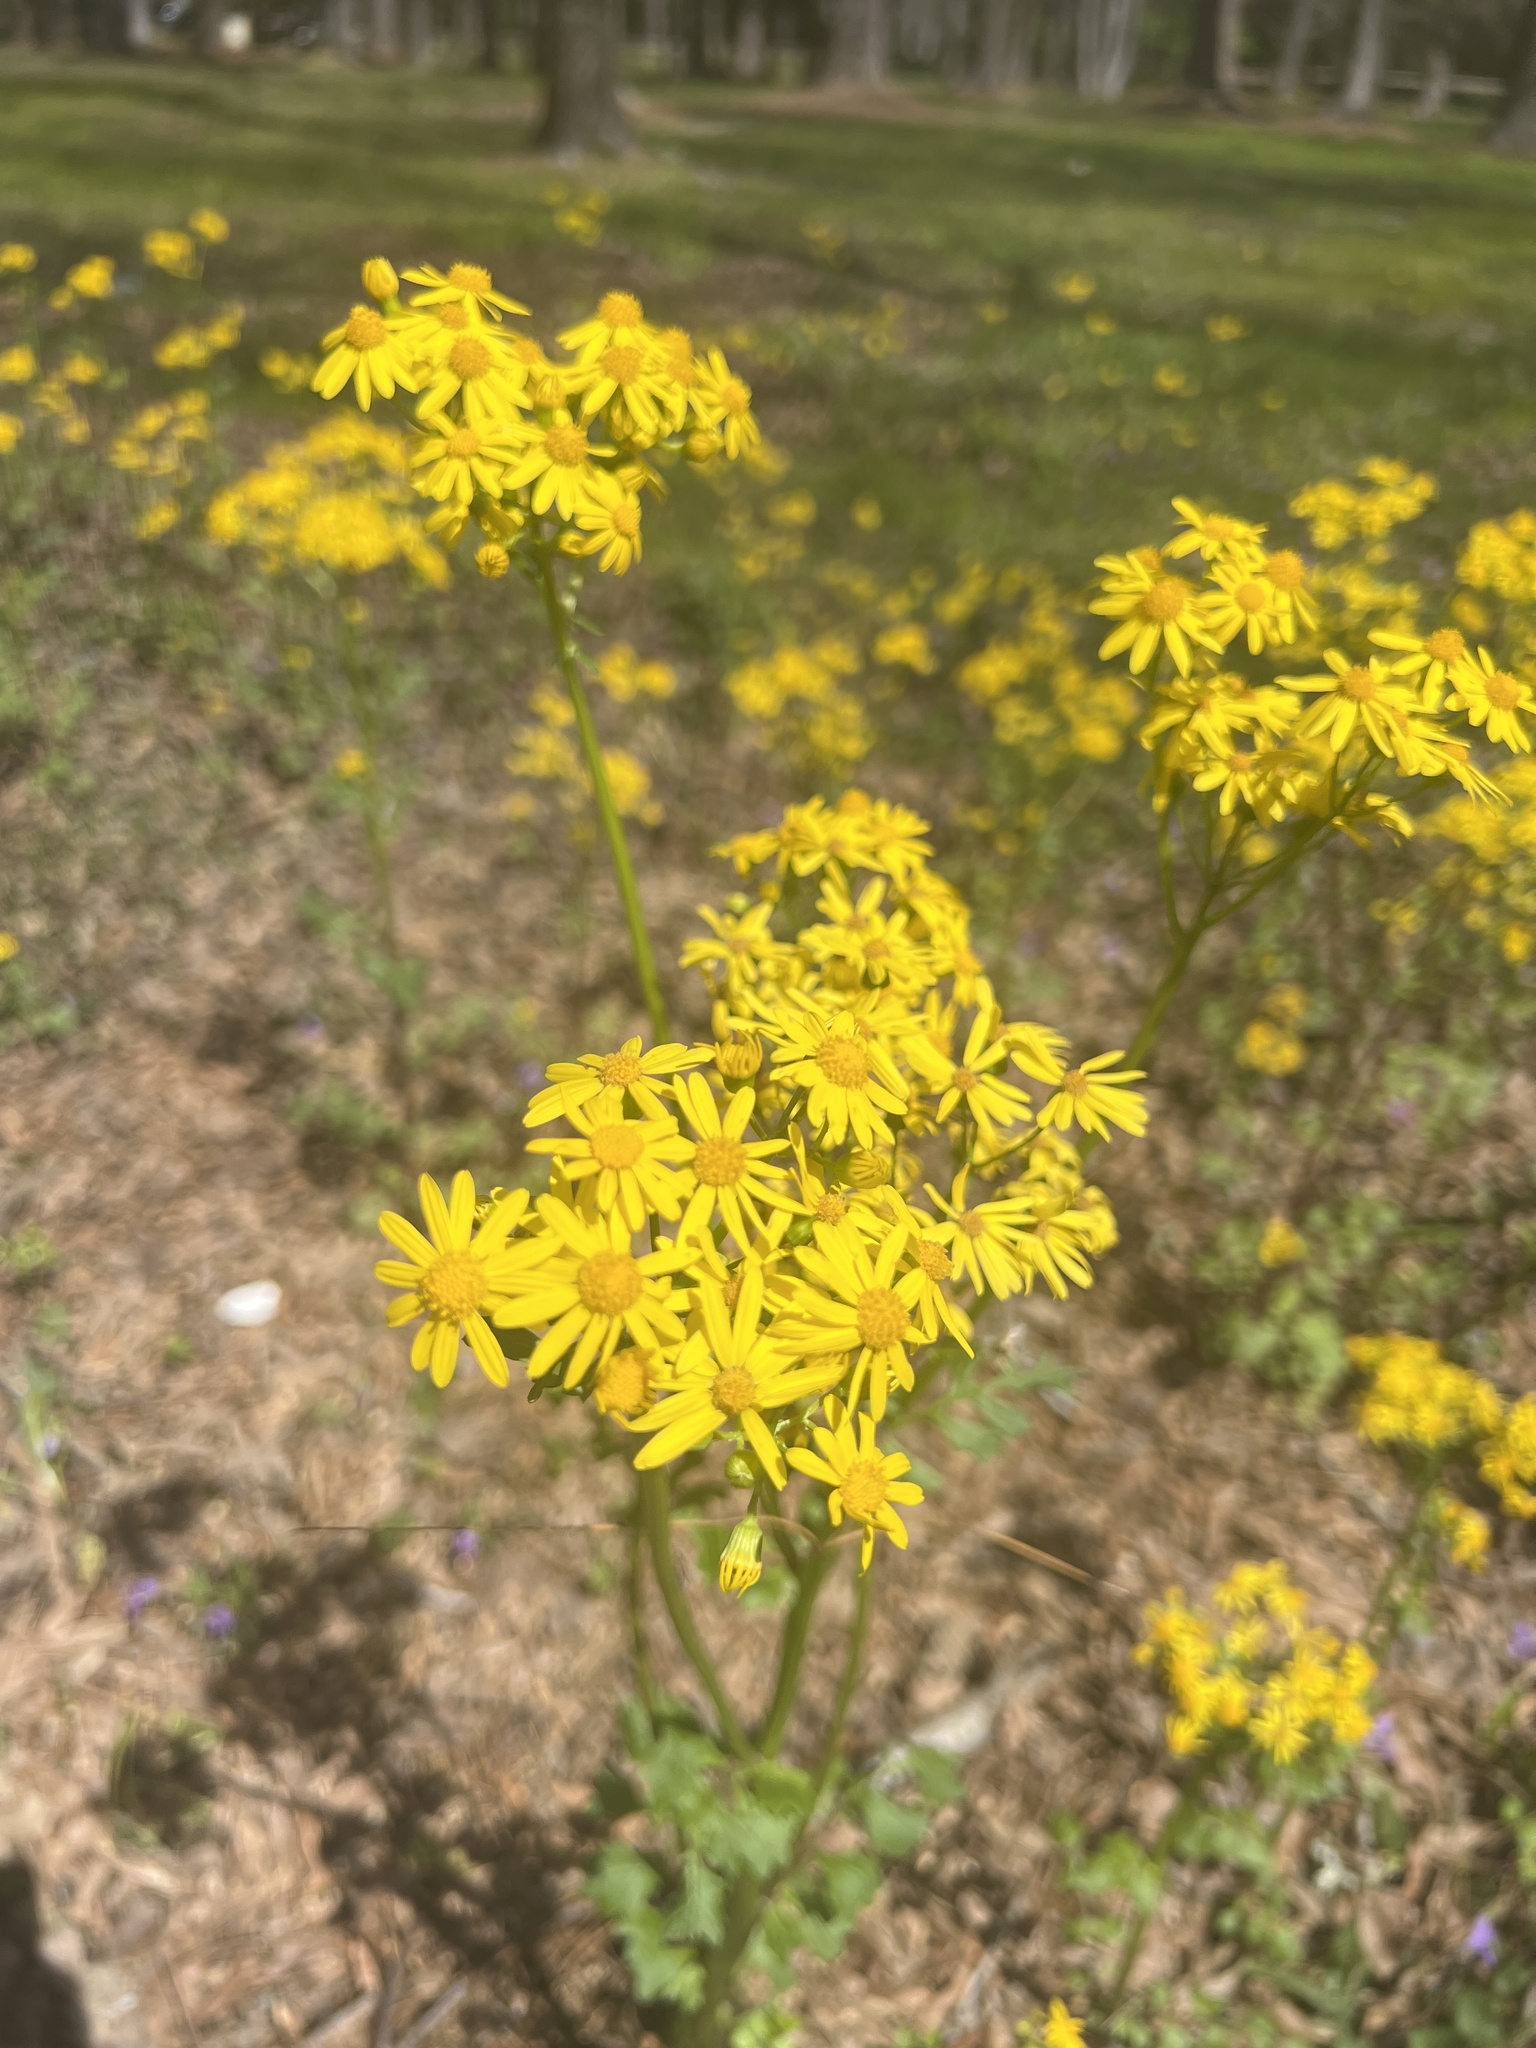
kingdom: Plantae
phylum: Tracheophyta
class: Magnoliopsida
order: Asterales
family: Asteraceae
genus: Packera
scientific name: Packera glabella
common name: Butterweed
